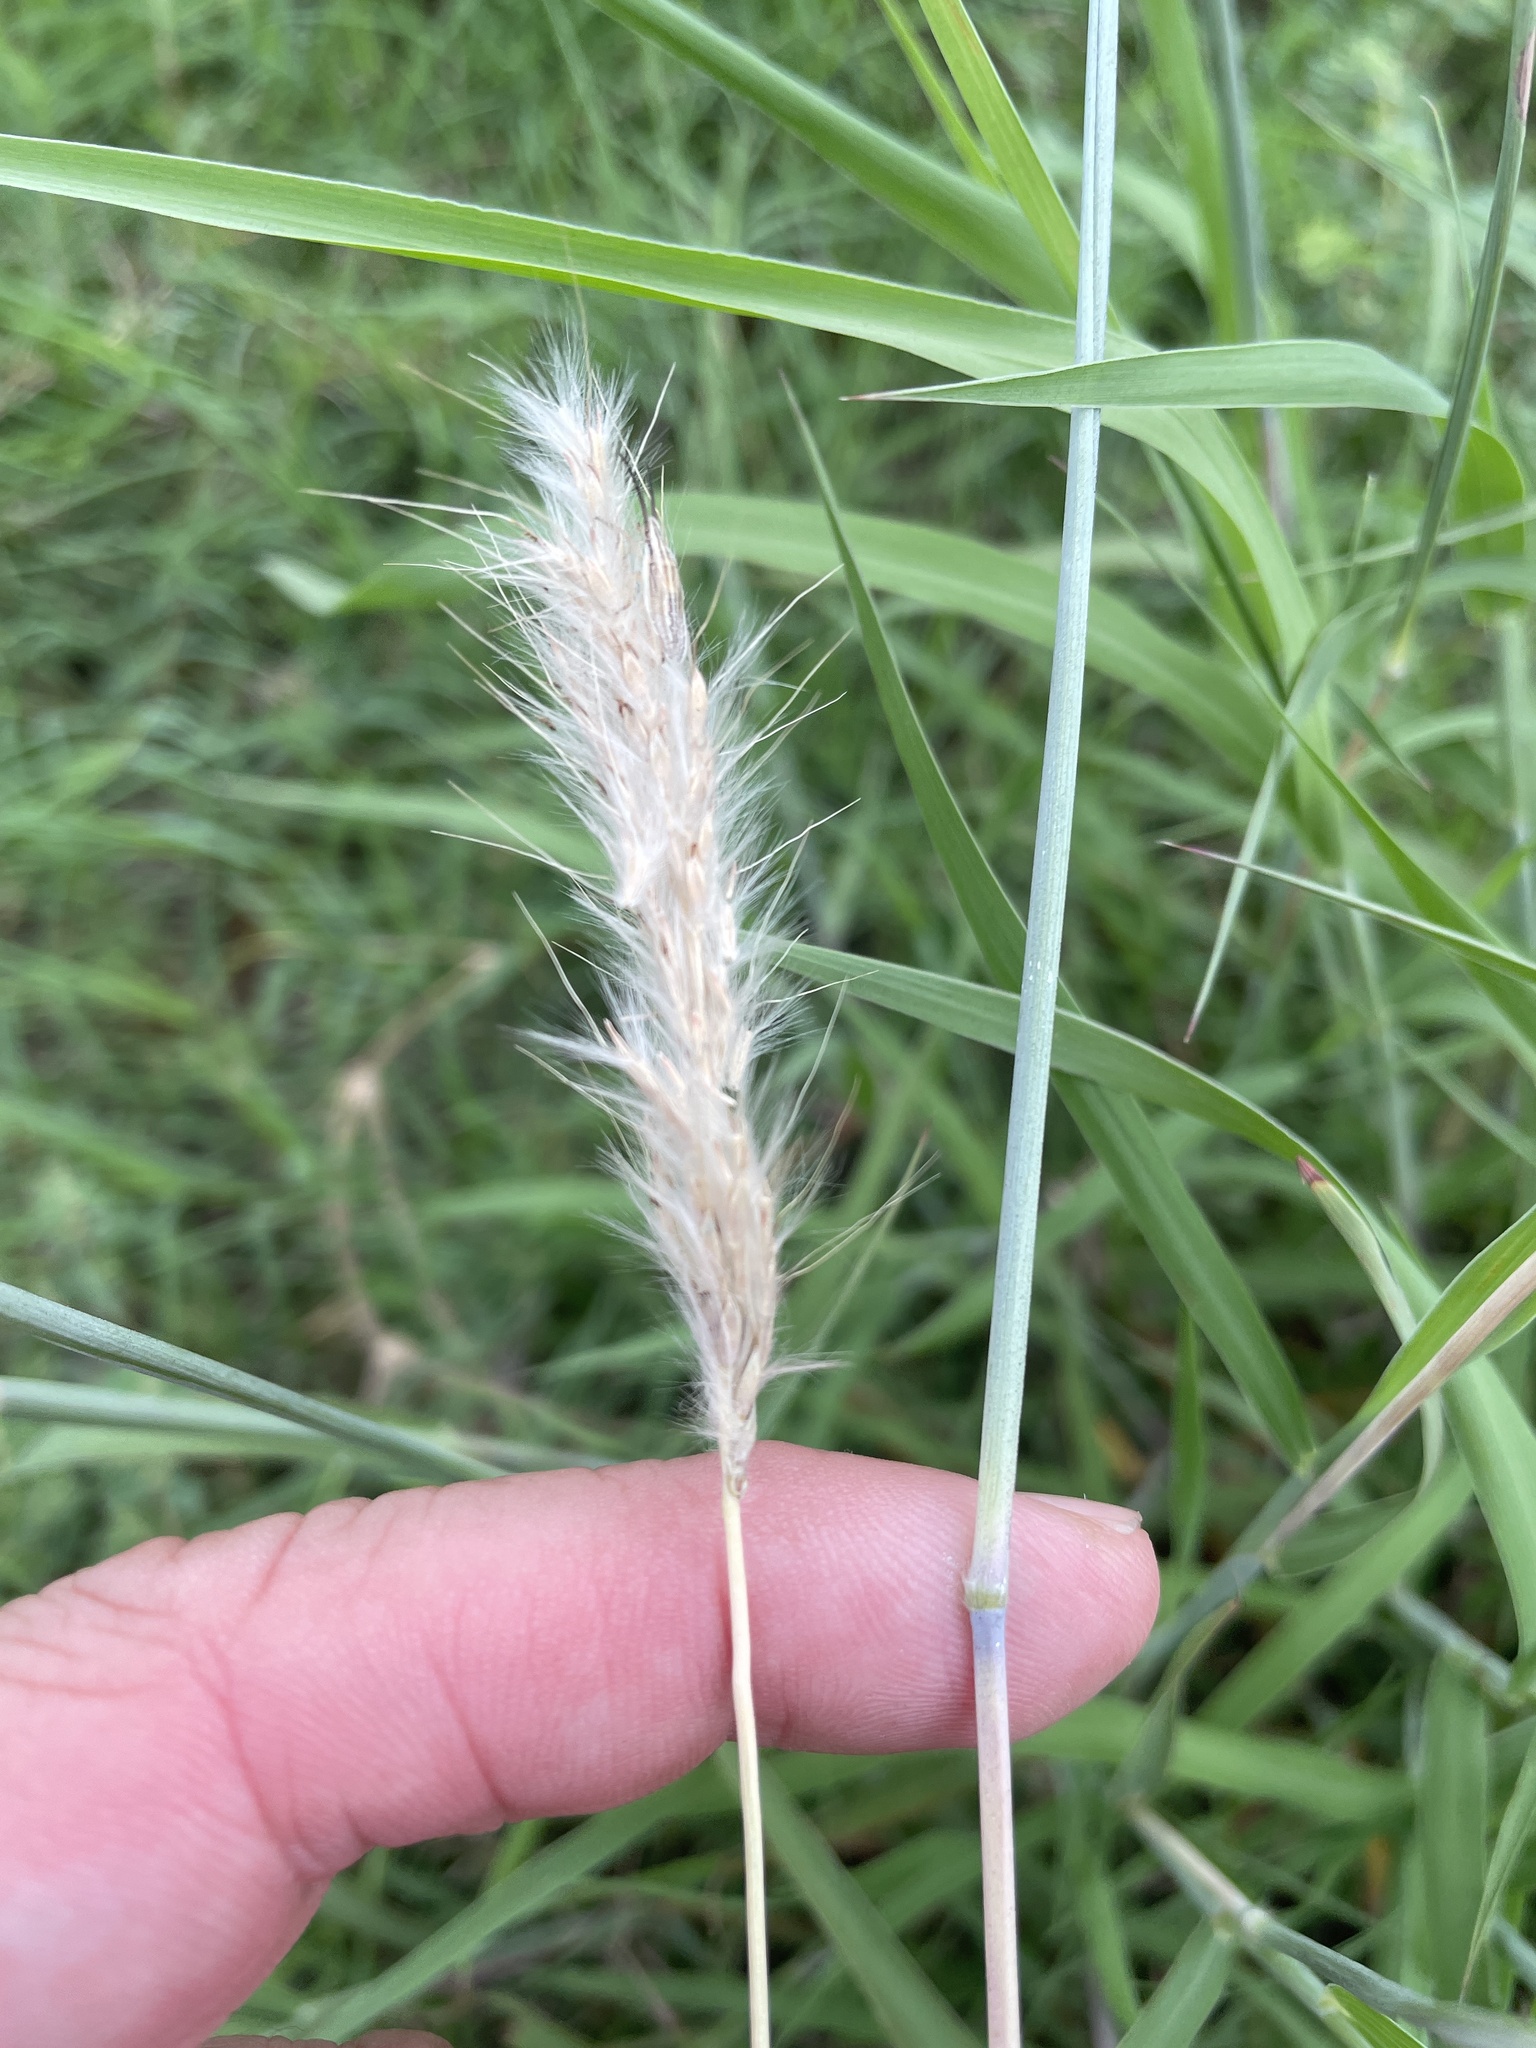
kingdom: Plantae
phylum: Tracheophyta
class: Liliopsida
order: Poales
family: Poaceae
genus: Bothriochloa
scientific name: Bothriochloa barbinodis
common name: Cane bluestem
